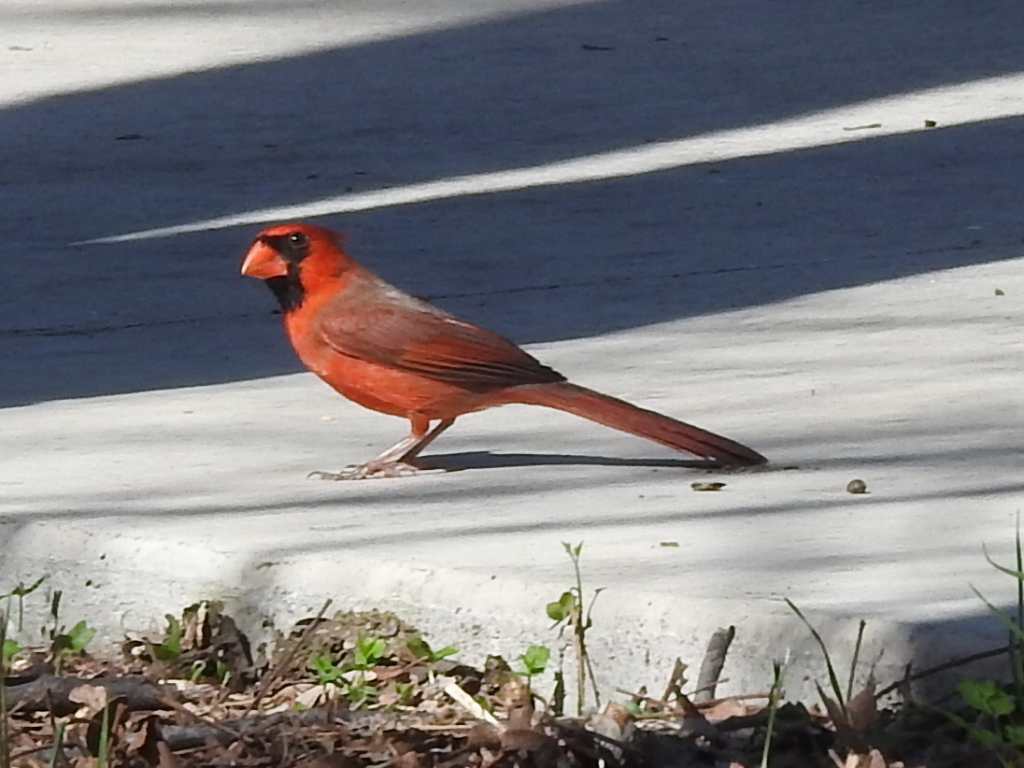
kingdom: Animalia
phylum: Chordata
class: Aves
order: Passeriformes
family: Cardinalidae
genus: Cardinalis
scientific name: Cardinalis cardinalis
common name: Northern cardinal
